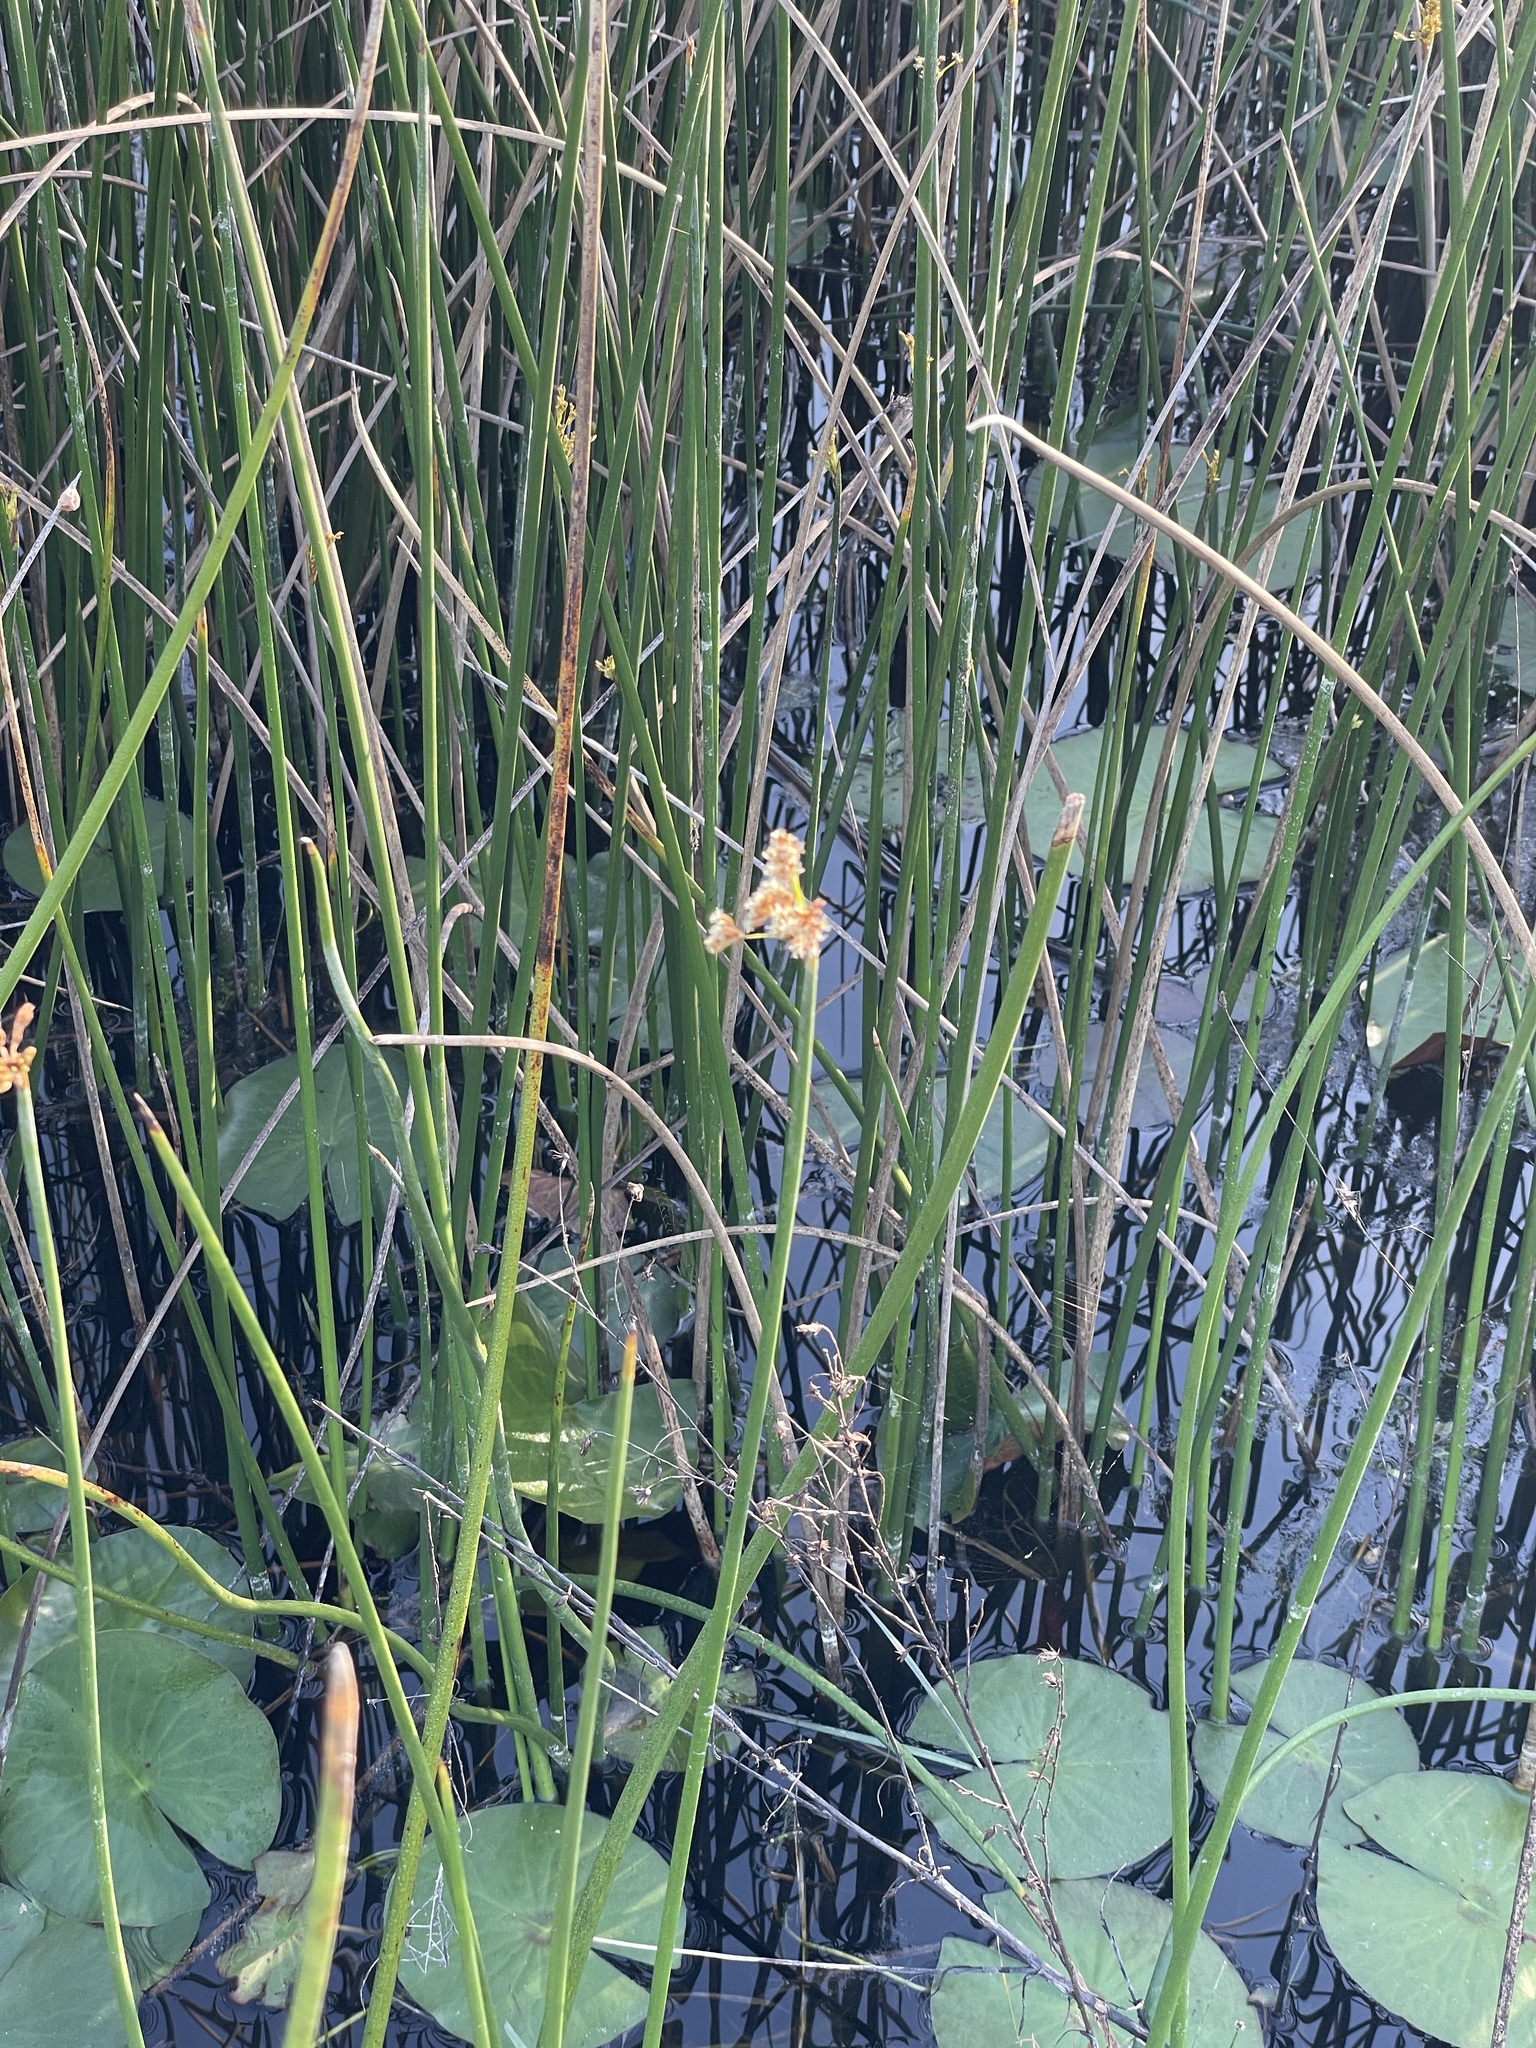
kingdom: Plantae
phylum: Tracheophyta
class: Liliopsida
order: Poales
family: Cyperaceae
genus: Schoenoplectus
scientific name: Schoenoplectus tabernaemontani
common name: Grey club-rush
